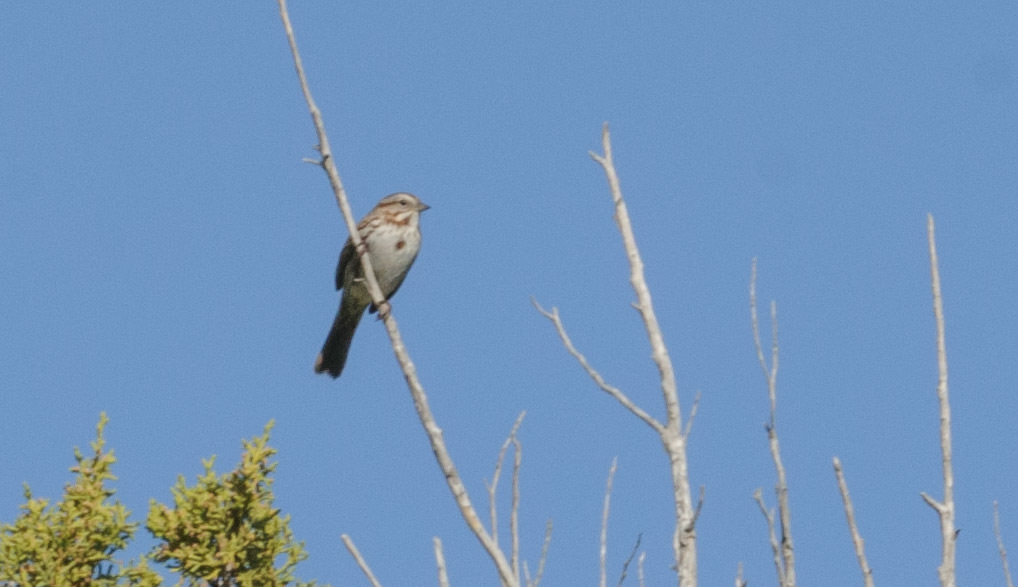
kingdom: Animalia
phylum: Chordata
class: Aves
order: Passeriformes
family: Passerellidae
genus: Melospiza
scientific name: Melospiza melodia
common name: Song sparrow
